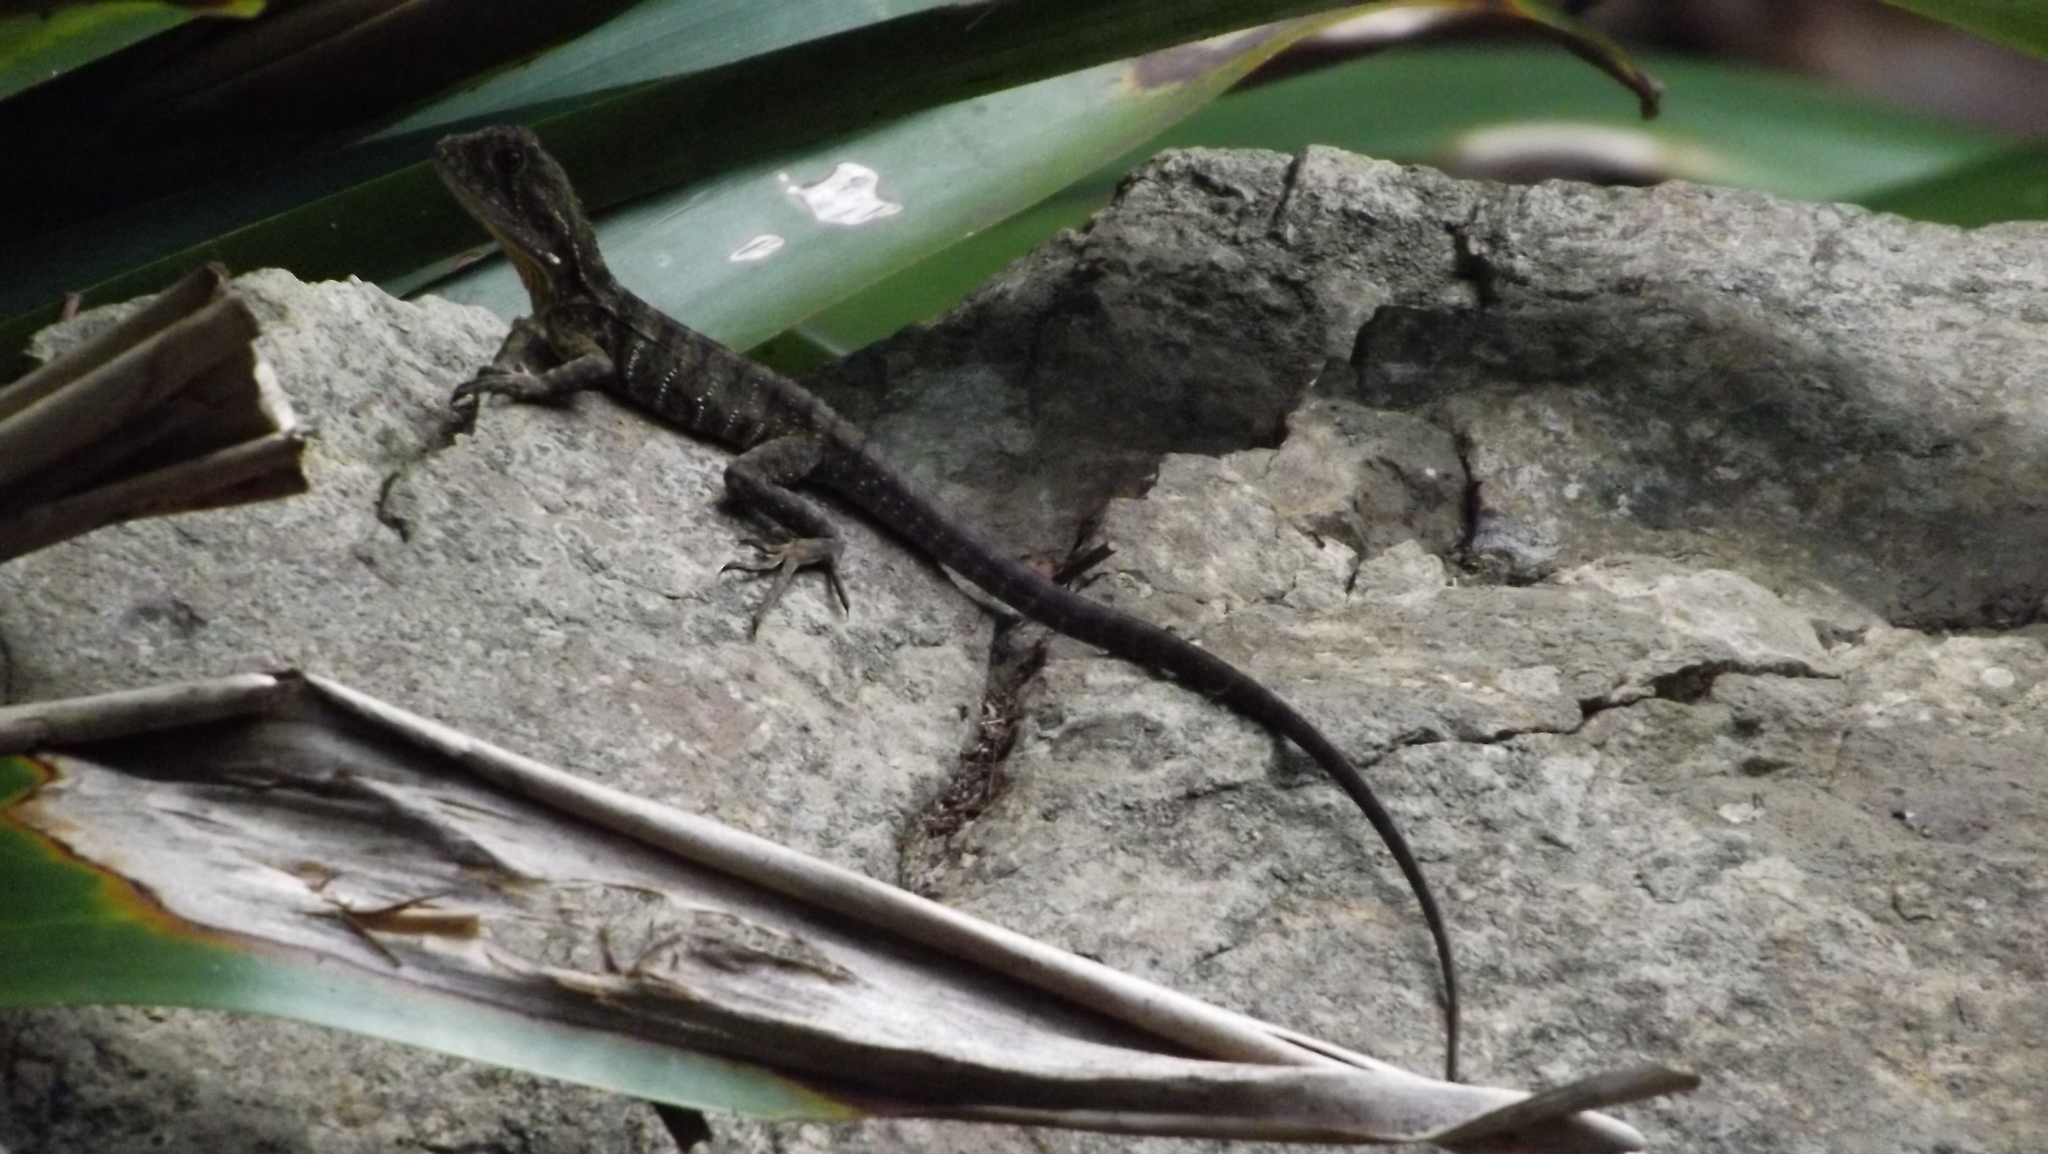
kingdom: Animalia
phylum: Chordata
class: Squamata
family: Agamidae
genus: Intellagama
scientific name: Intellagama lesueurii
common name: Eastern water dragon
